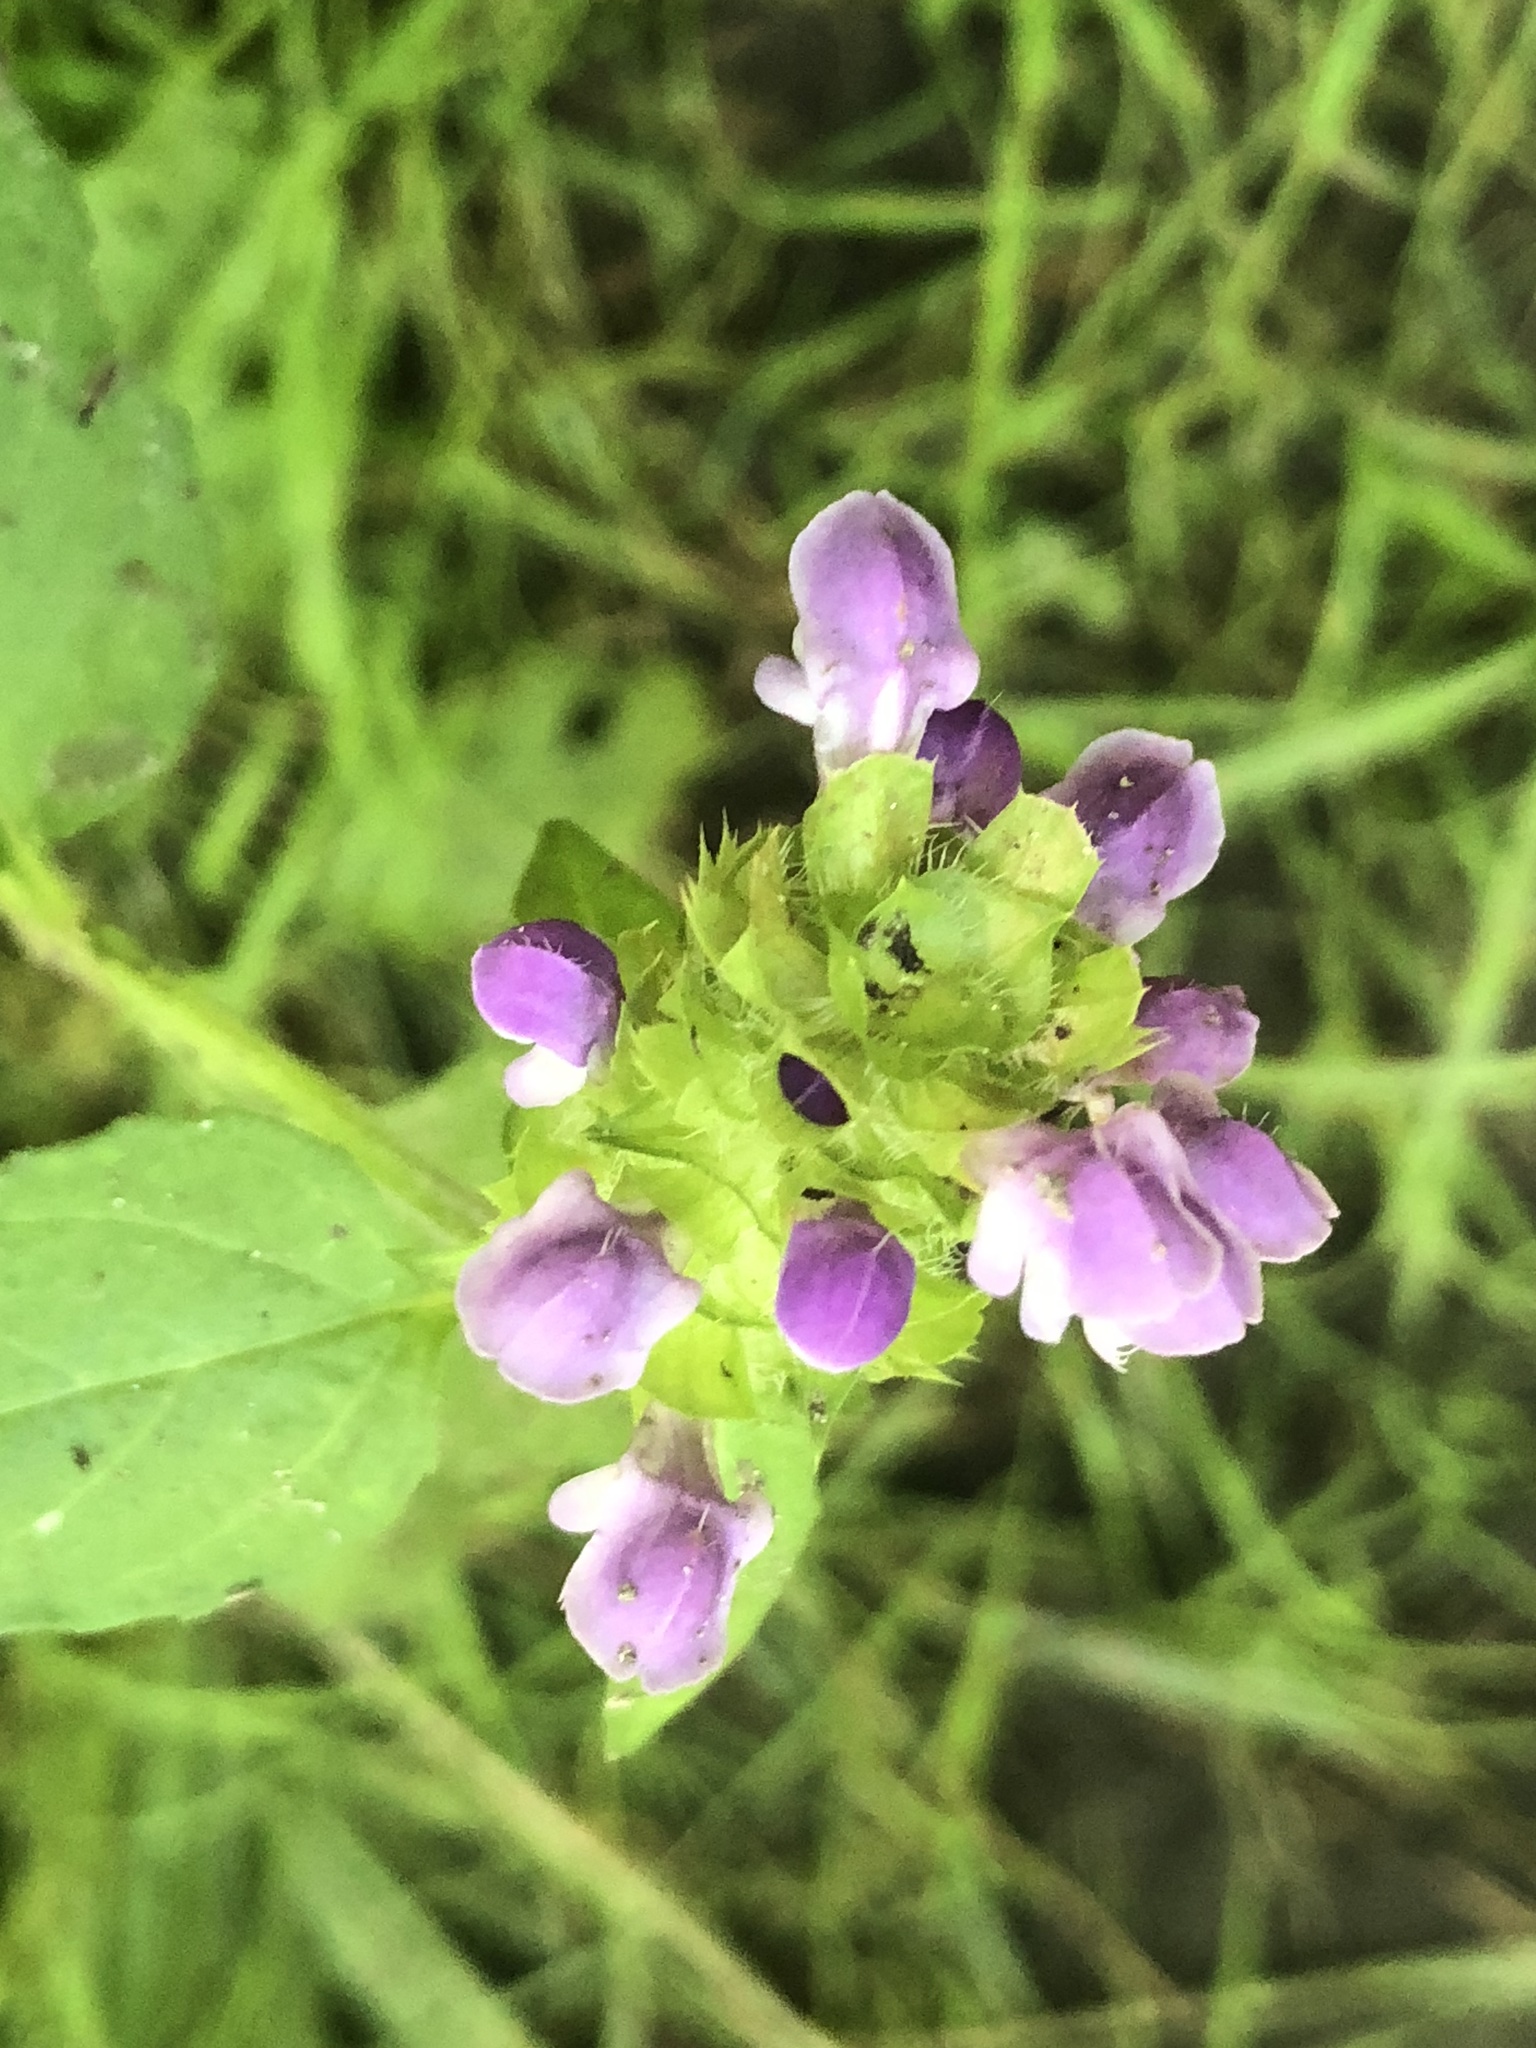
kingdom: Plantae
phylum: Tracheophyta
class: Magnoliopsida
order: Lamiales
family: Lamiaceae
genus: Prunella
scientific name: Prunella vulgaris
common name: Heal-all
